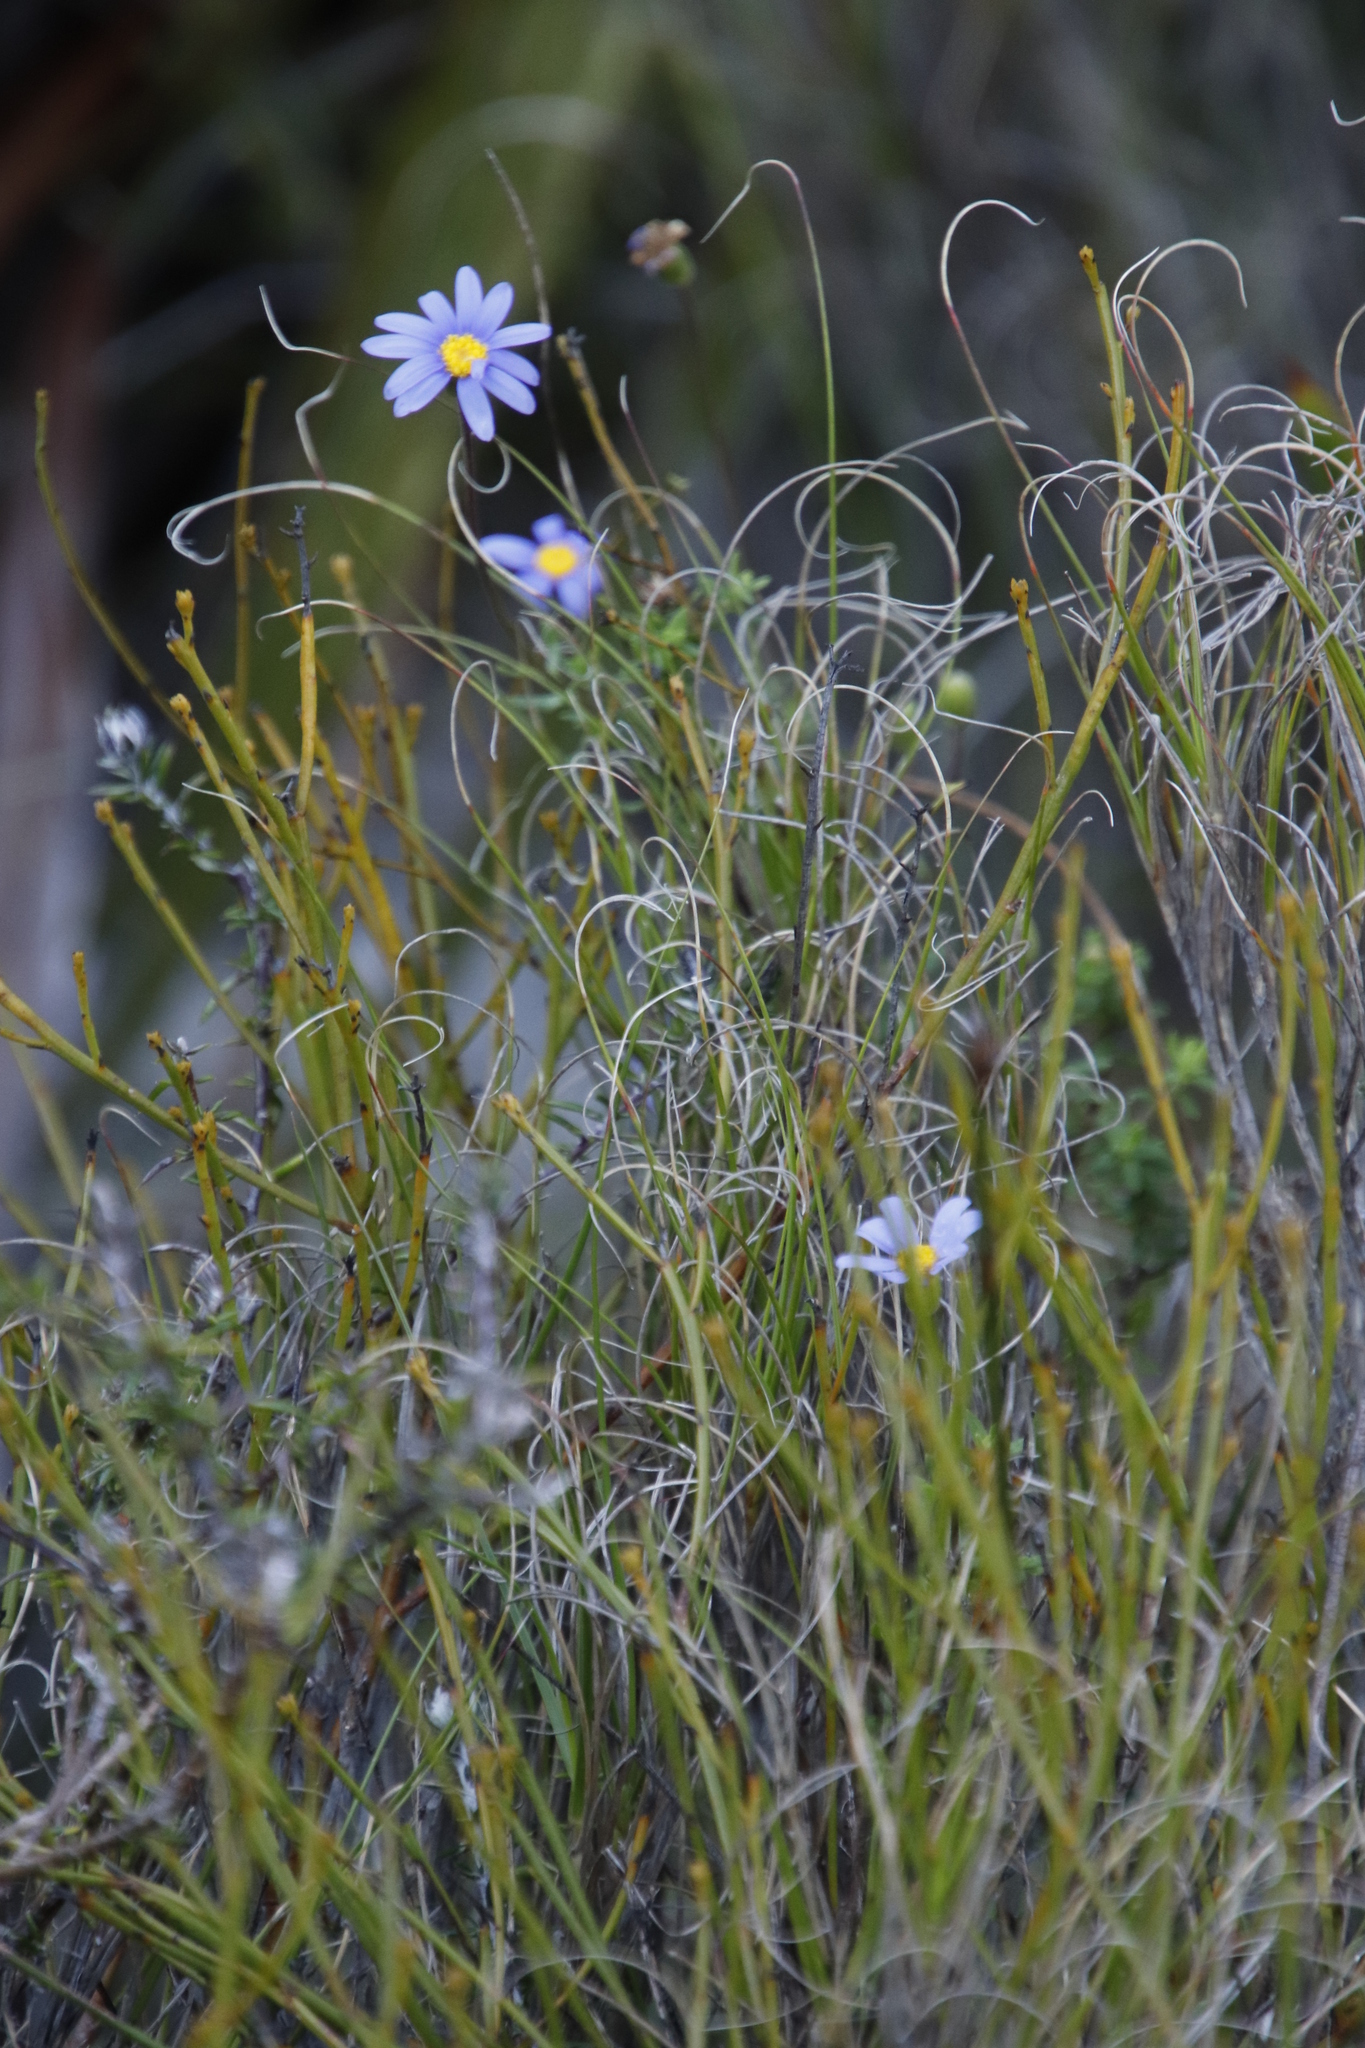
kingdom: Plantae
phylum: Tracheophyta
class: Magnoliopsida
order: Asterales
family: Asteraceae
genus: Felicia
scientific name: Felicia aethiopica
